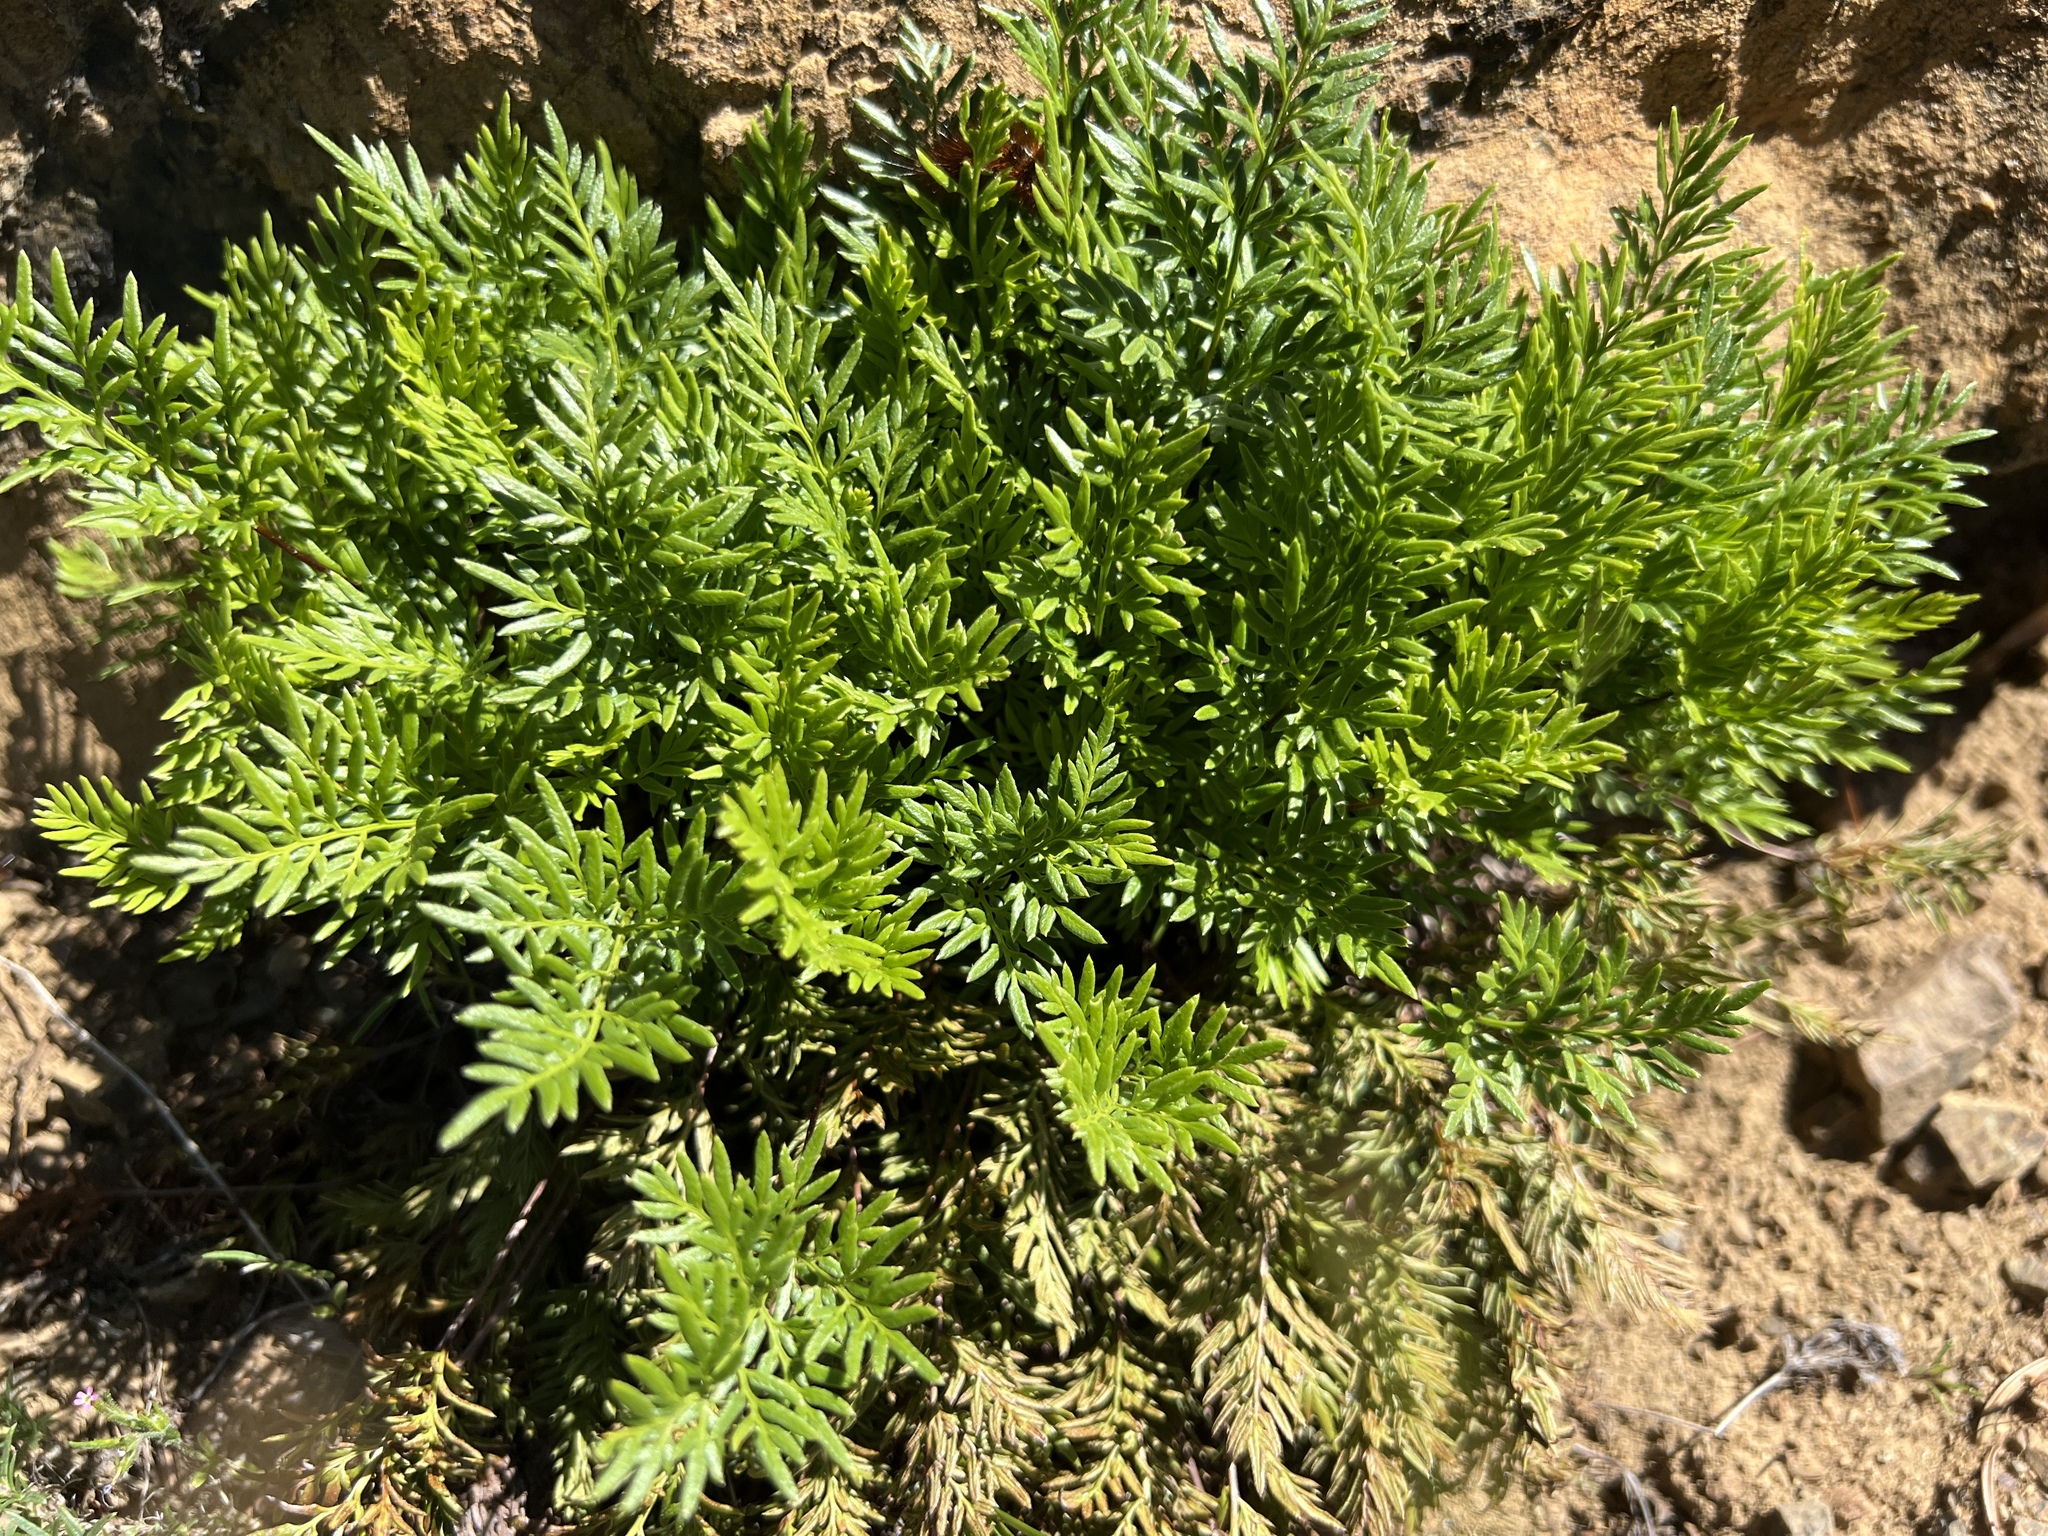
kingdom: Plantae
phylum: Tracheophyta
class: Polypodiopsida
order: Polypodiales
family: Pteridaceae
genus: Aspidotis
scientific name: Aspidotis densa
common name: Indian's dream
